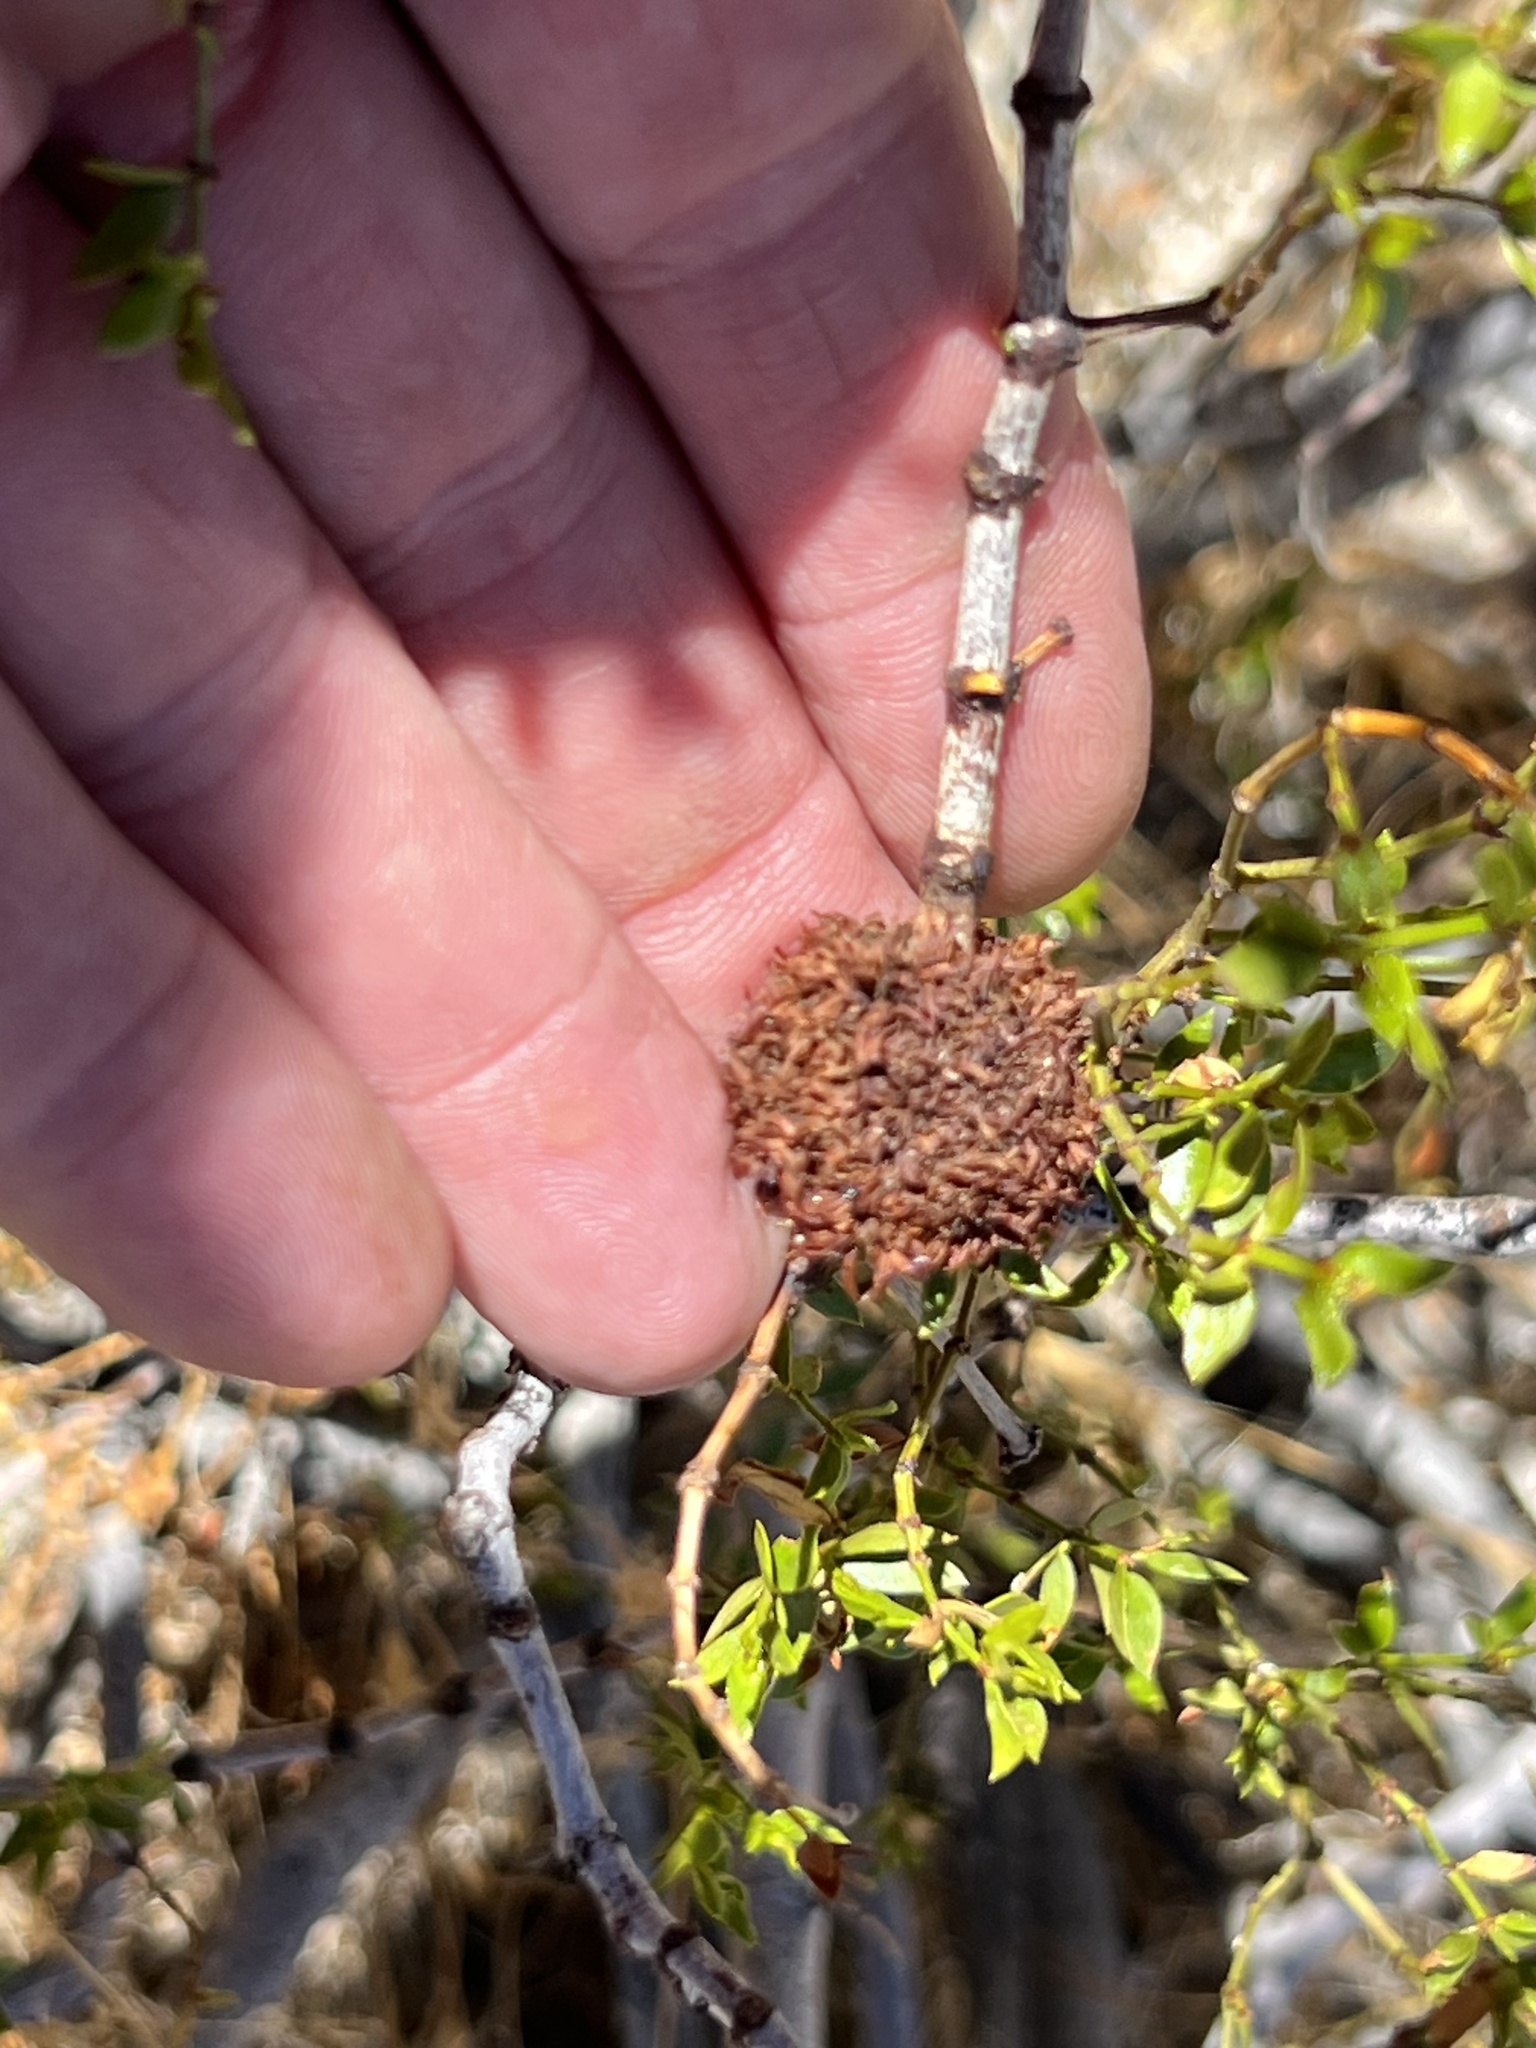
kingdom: Animalia
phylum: Arthropoda
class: Insecta
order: Diptera
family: Cecidomyiidae
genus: Asphondylia
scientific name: Asphondylia auripila
